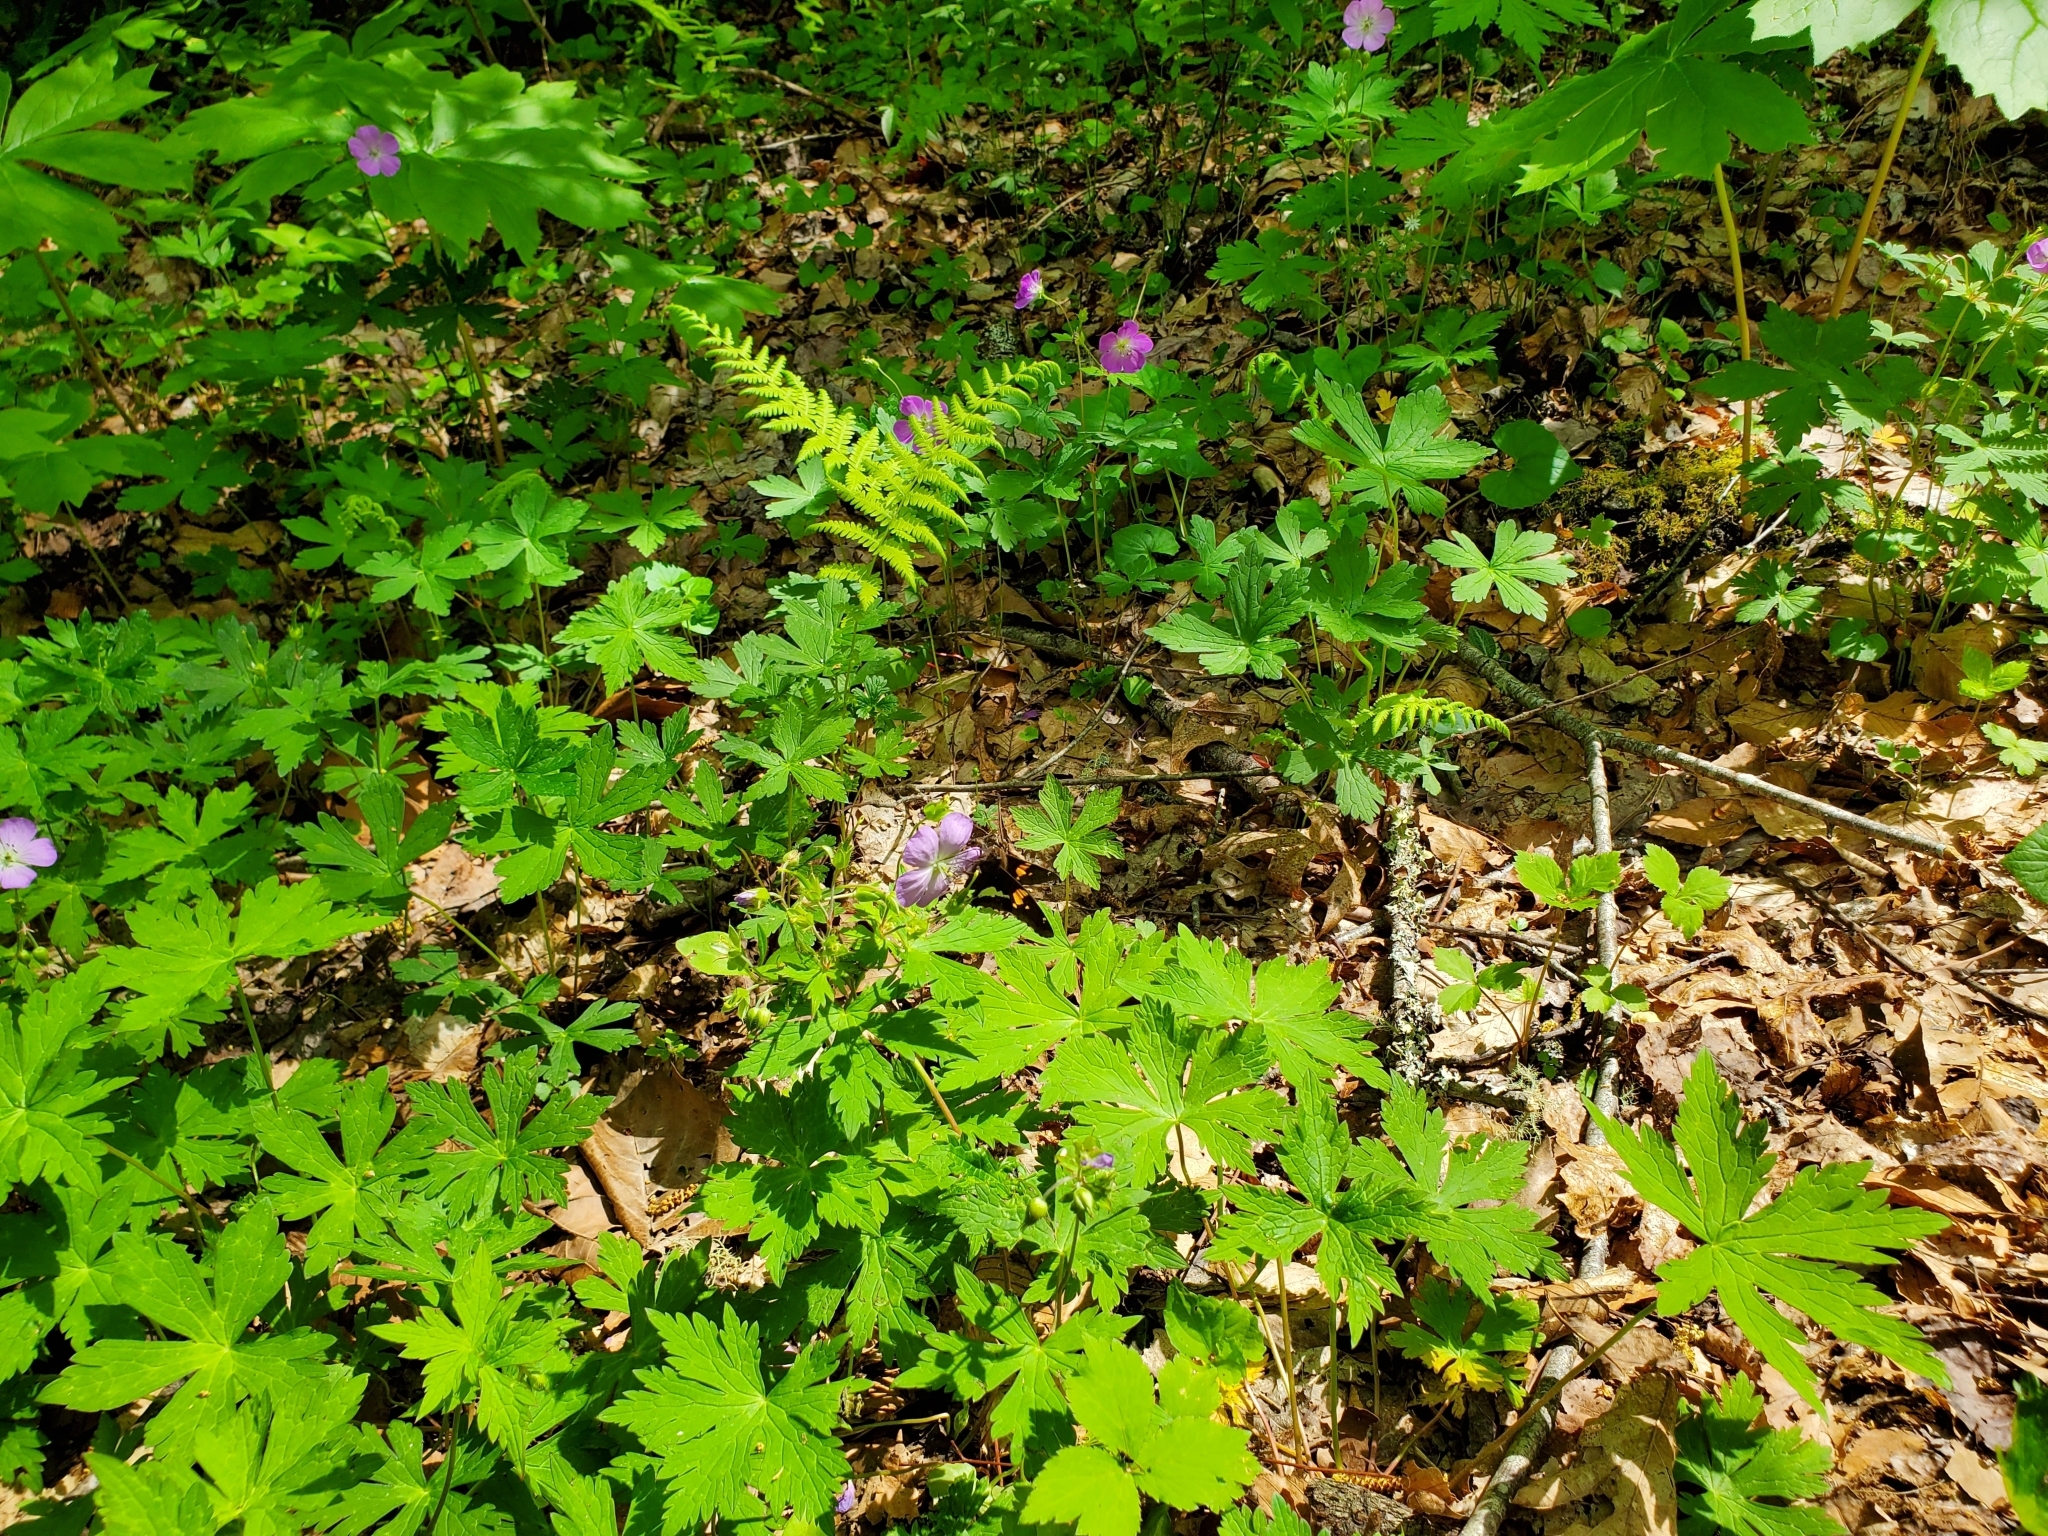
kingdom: Plantae
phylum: Tracheophyta
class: Magnoliopsida
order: Geraniales
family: Geraniaceae
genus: Geranium
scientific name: Geranium maculatum
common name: Spotted geranium
